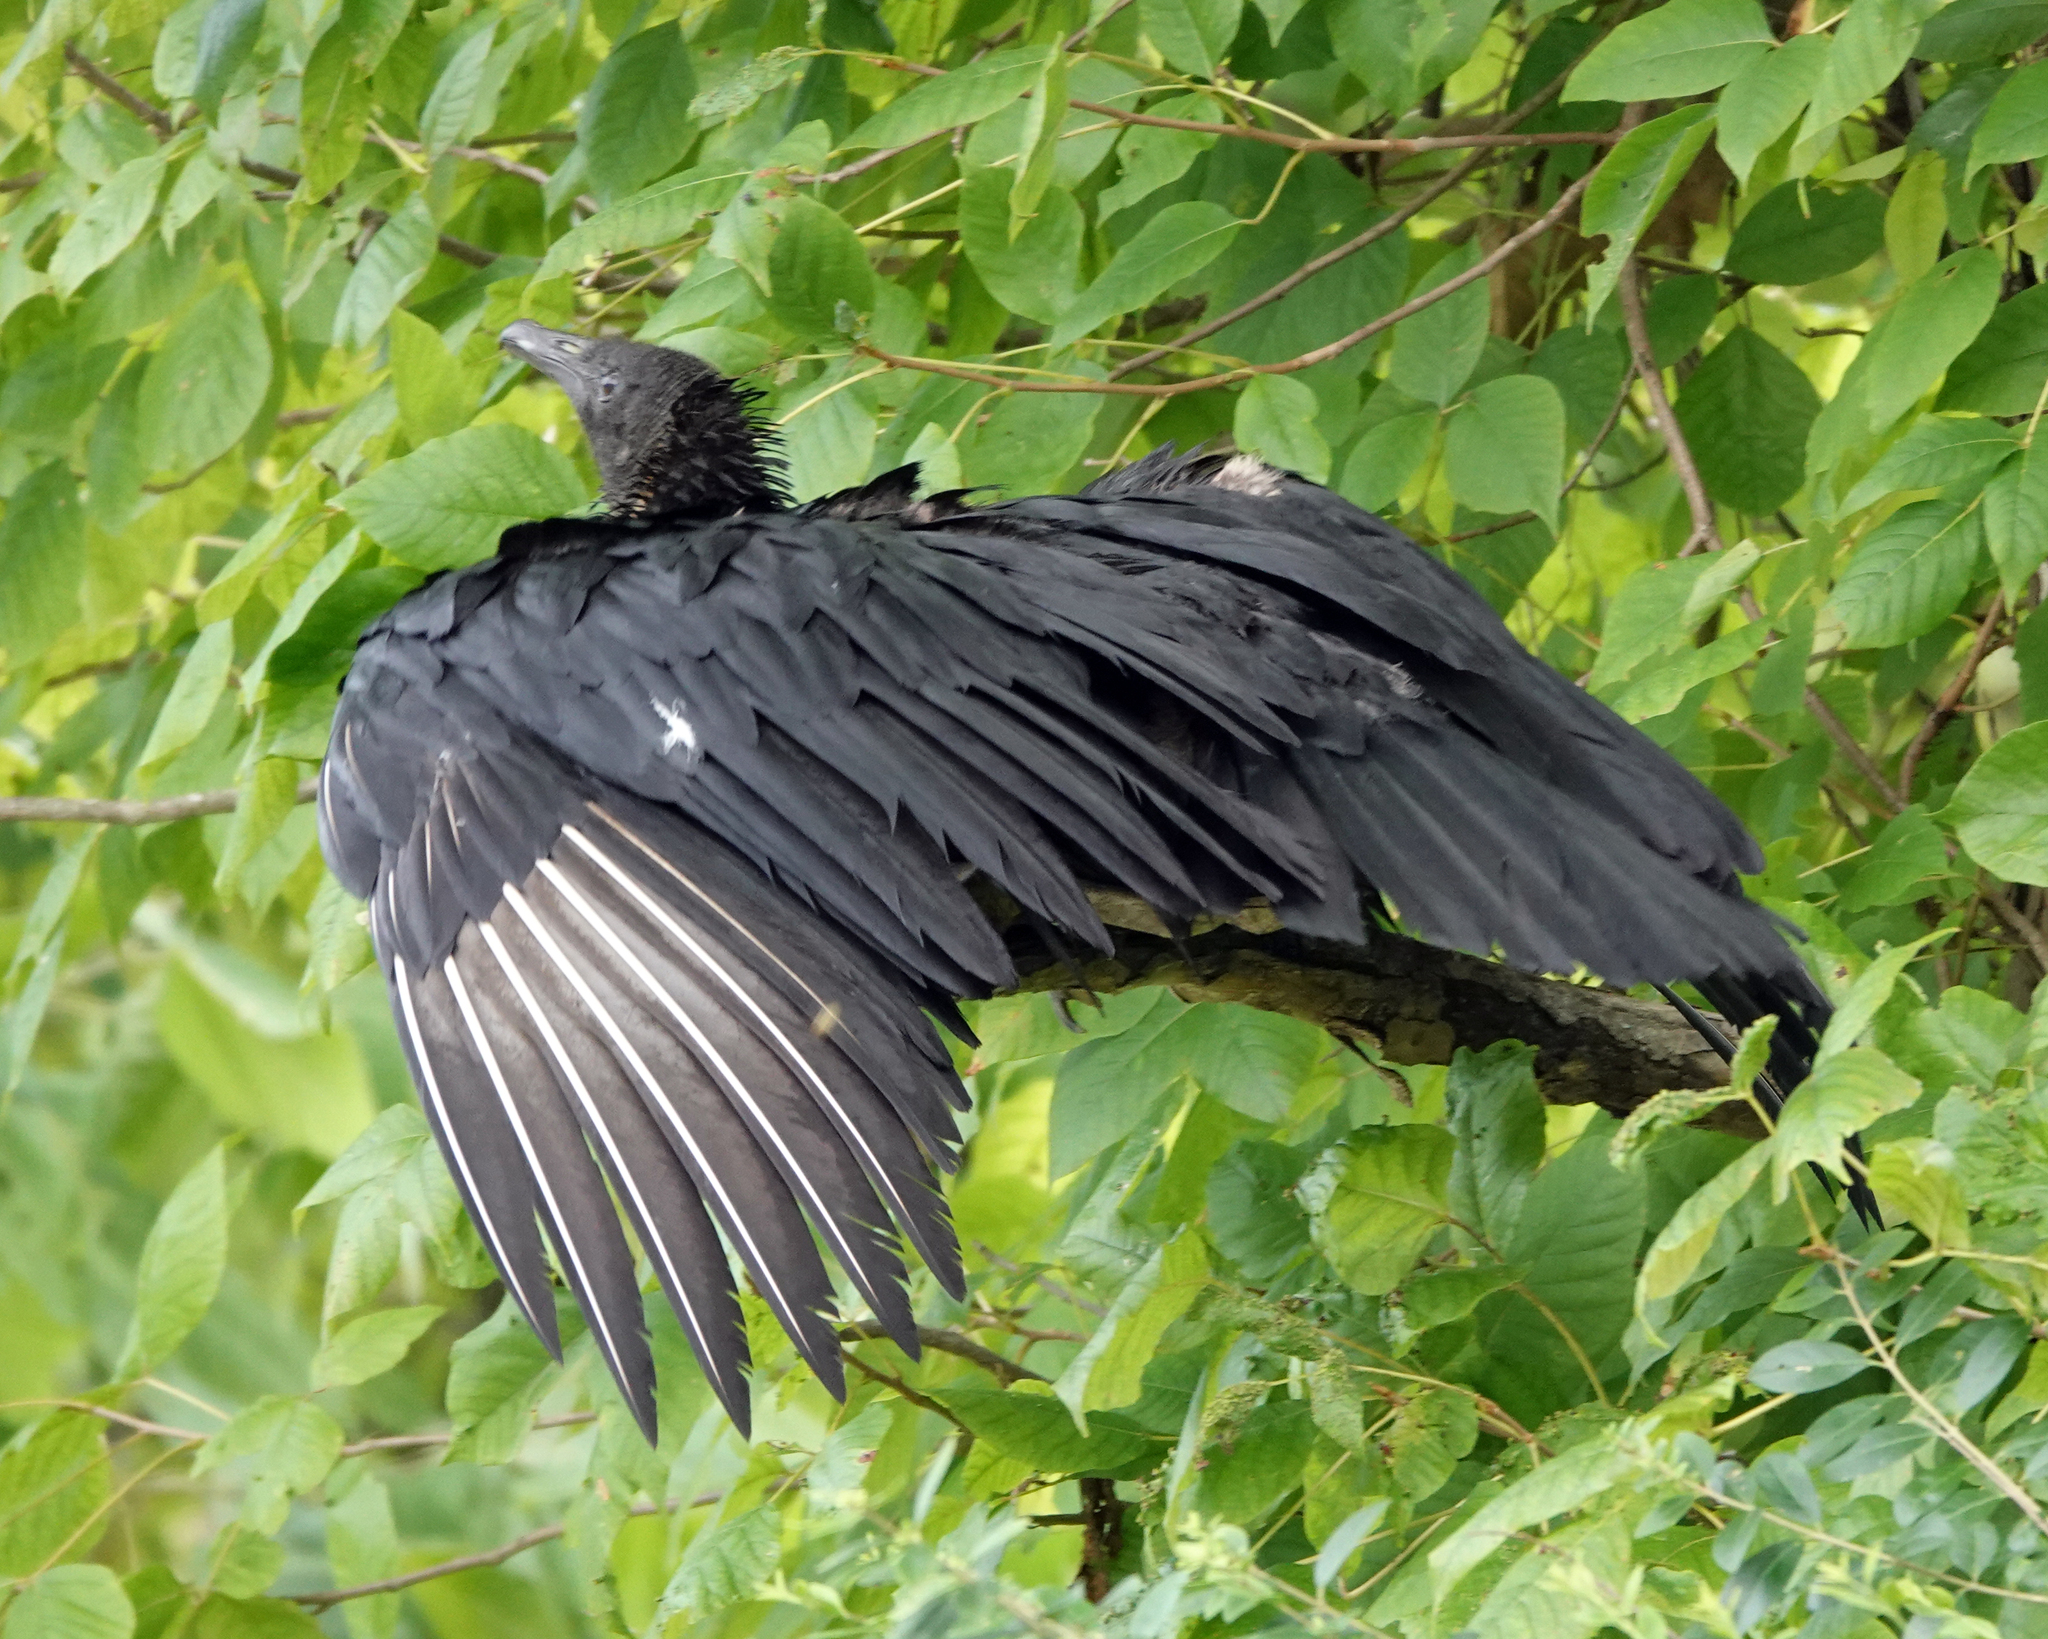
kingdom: Animalia
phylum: Chordata
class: Aves
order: Accipitriformes
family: Cathartidae
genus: Coragyps
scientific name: Coragyps atratus
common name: Black vulture
